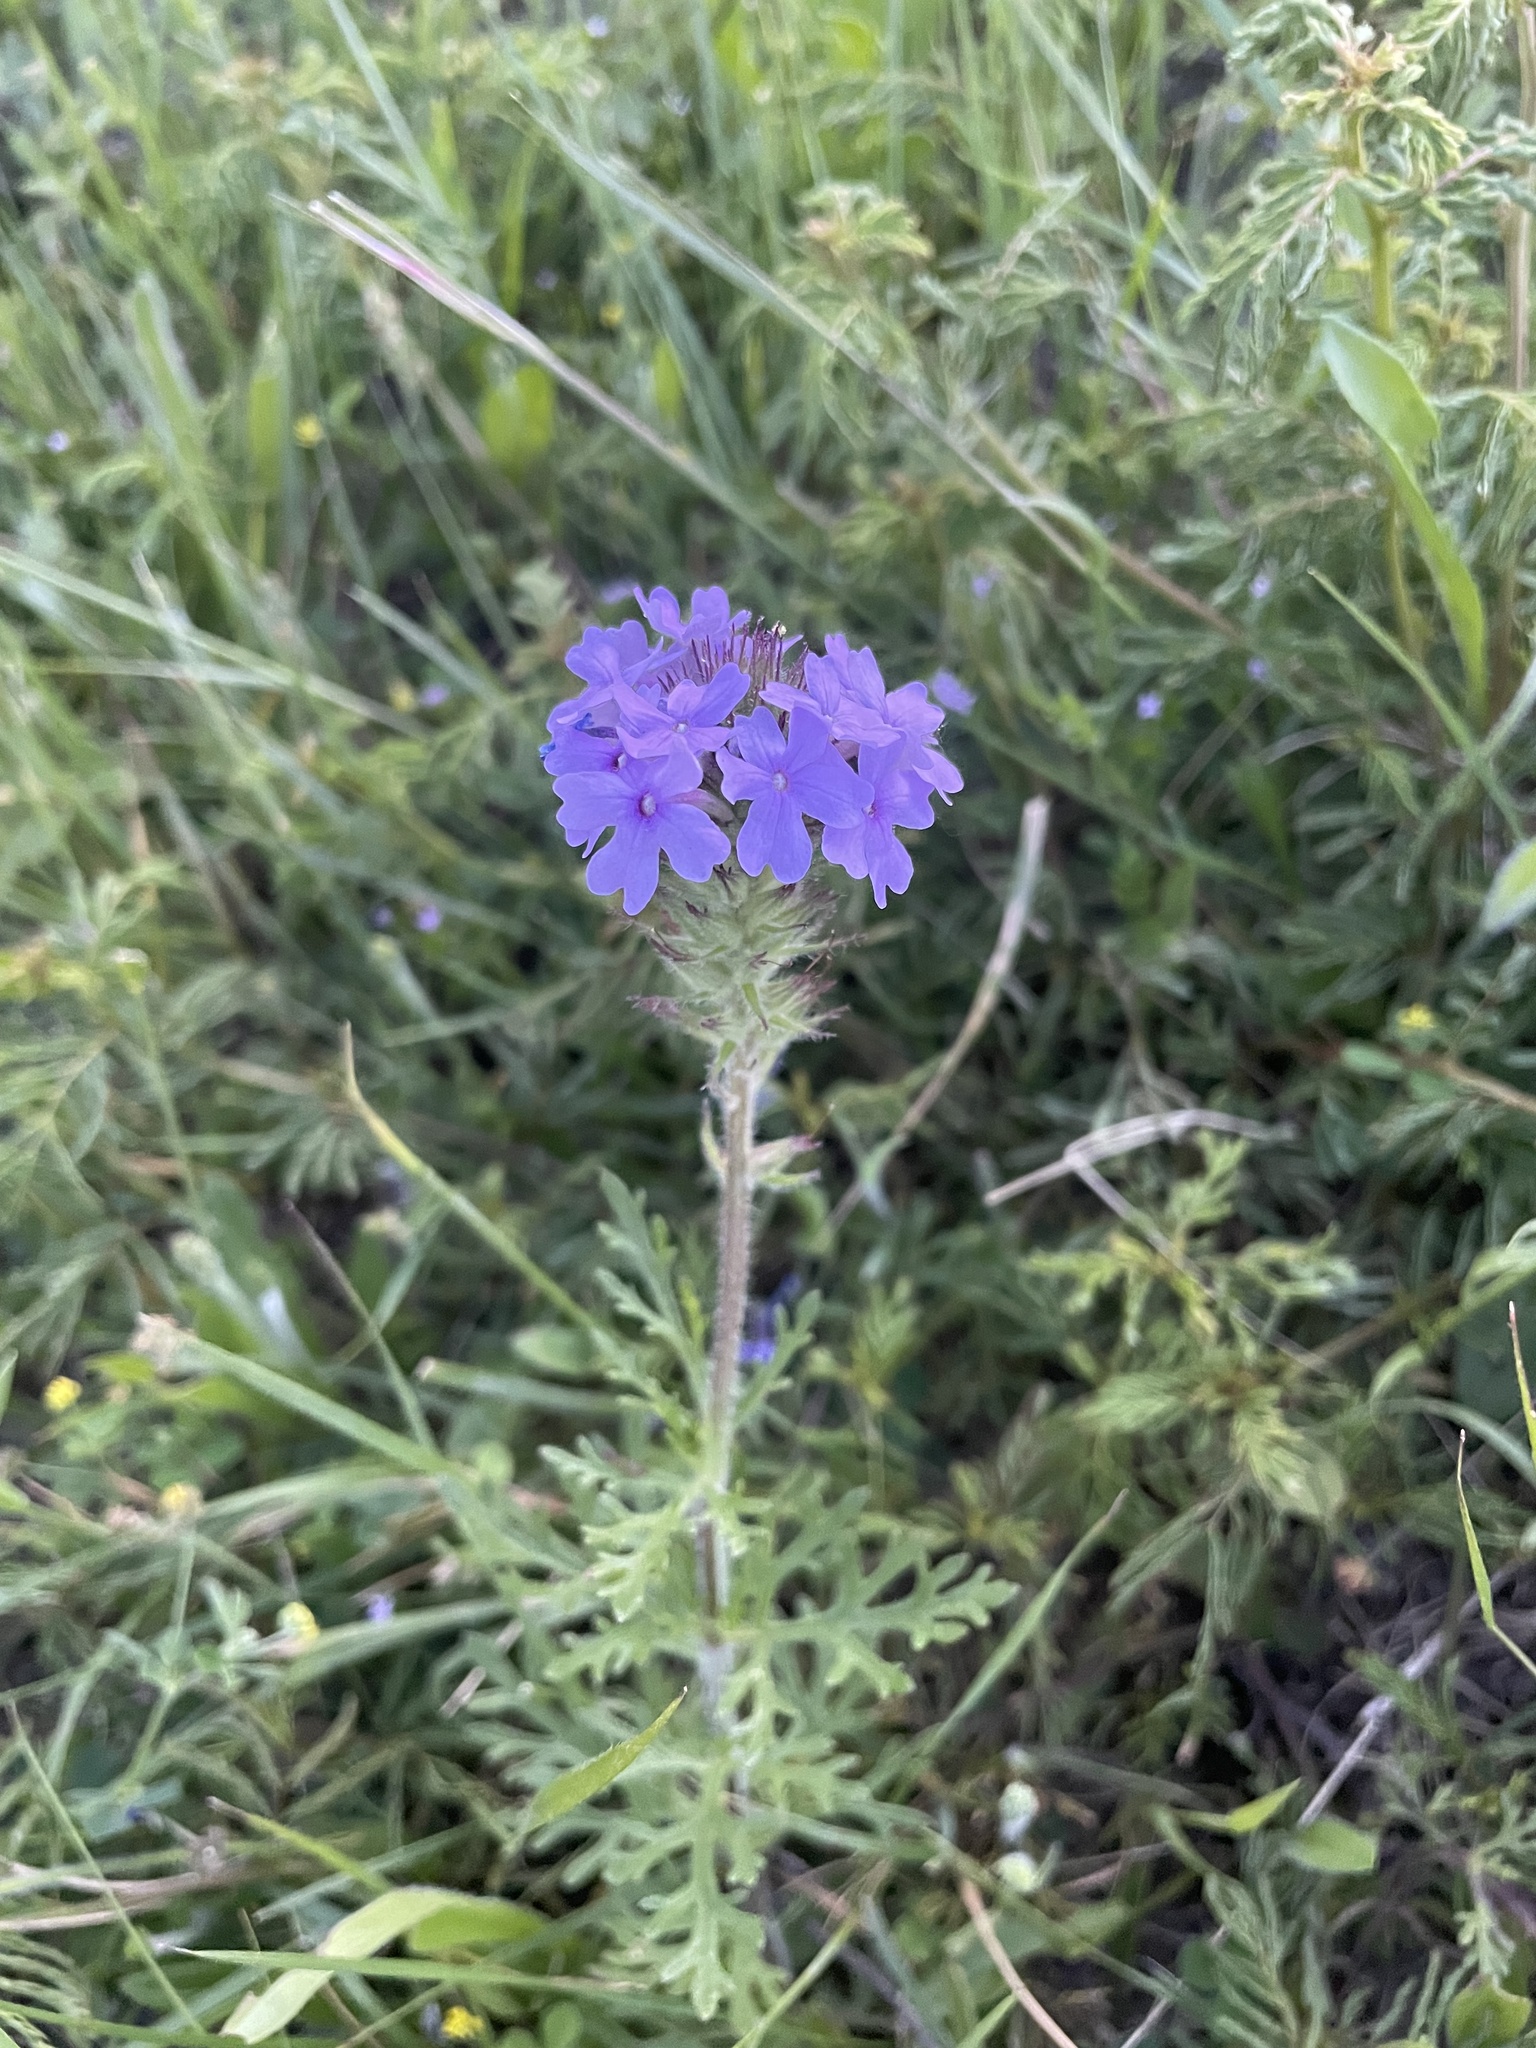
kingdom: Plantae
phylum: Tracheophyta
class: Magnoliopsida
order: Lamiales
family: Verbenaceae
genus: Verbena
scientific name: Verbena bipinnatifida
